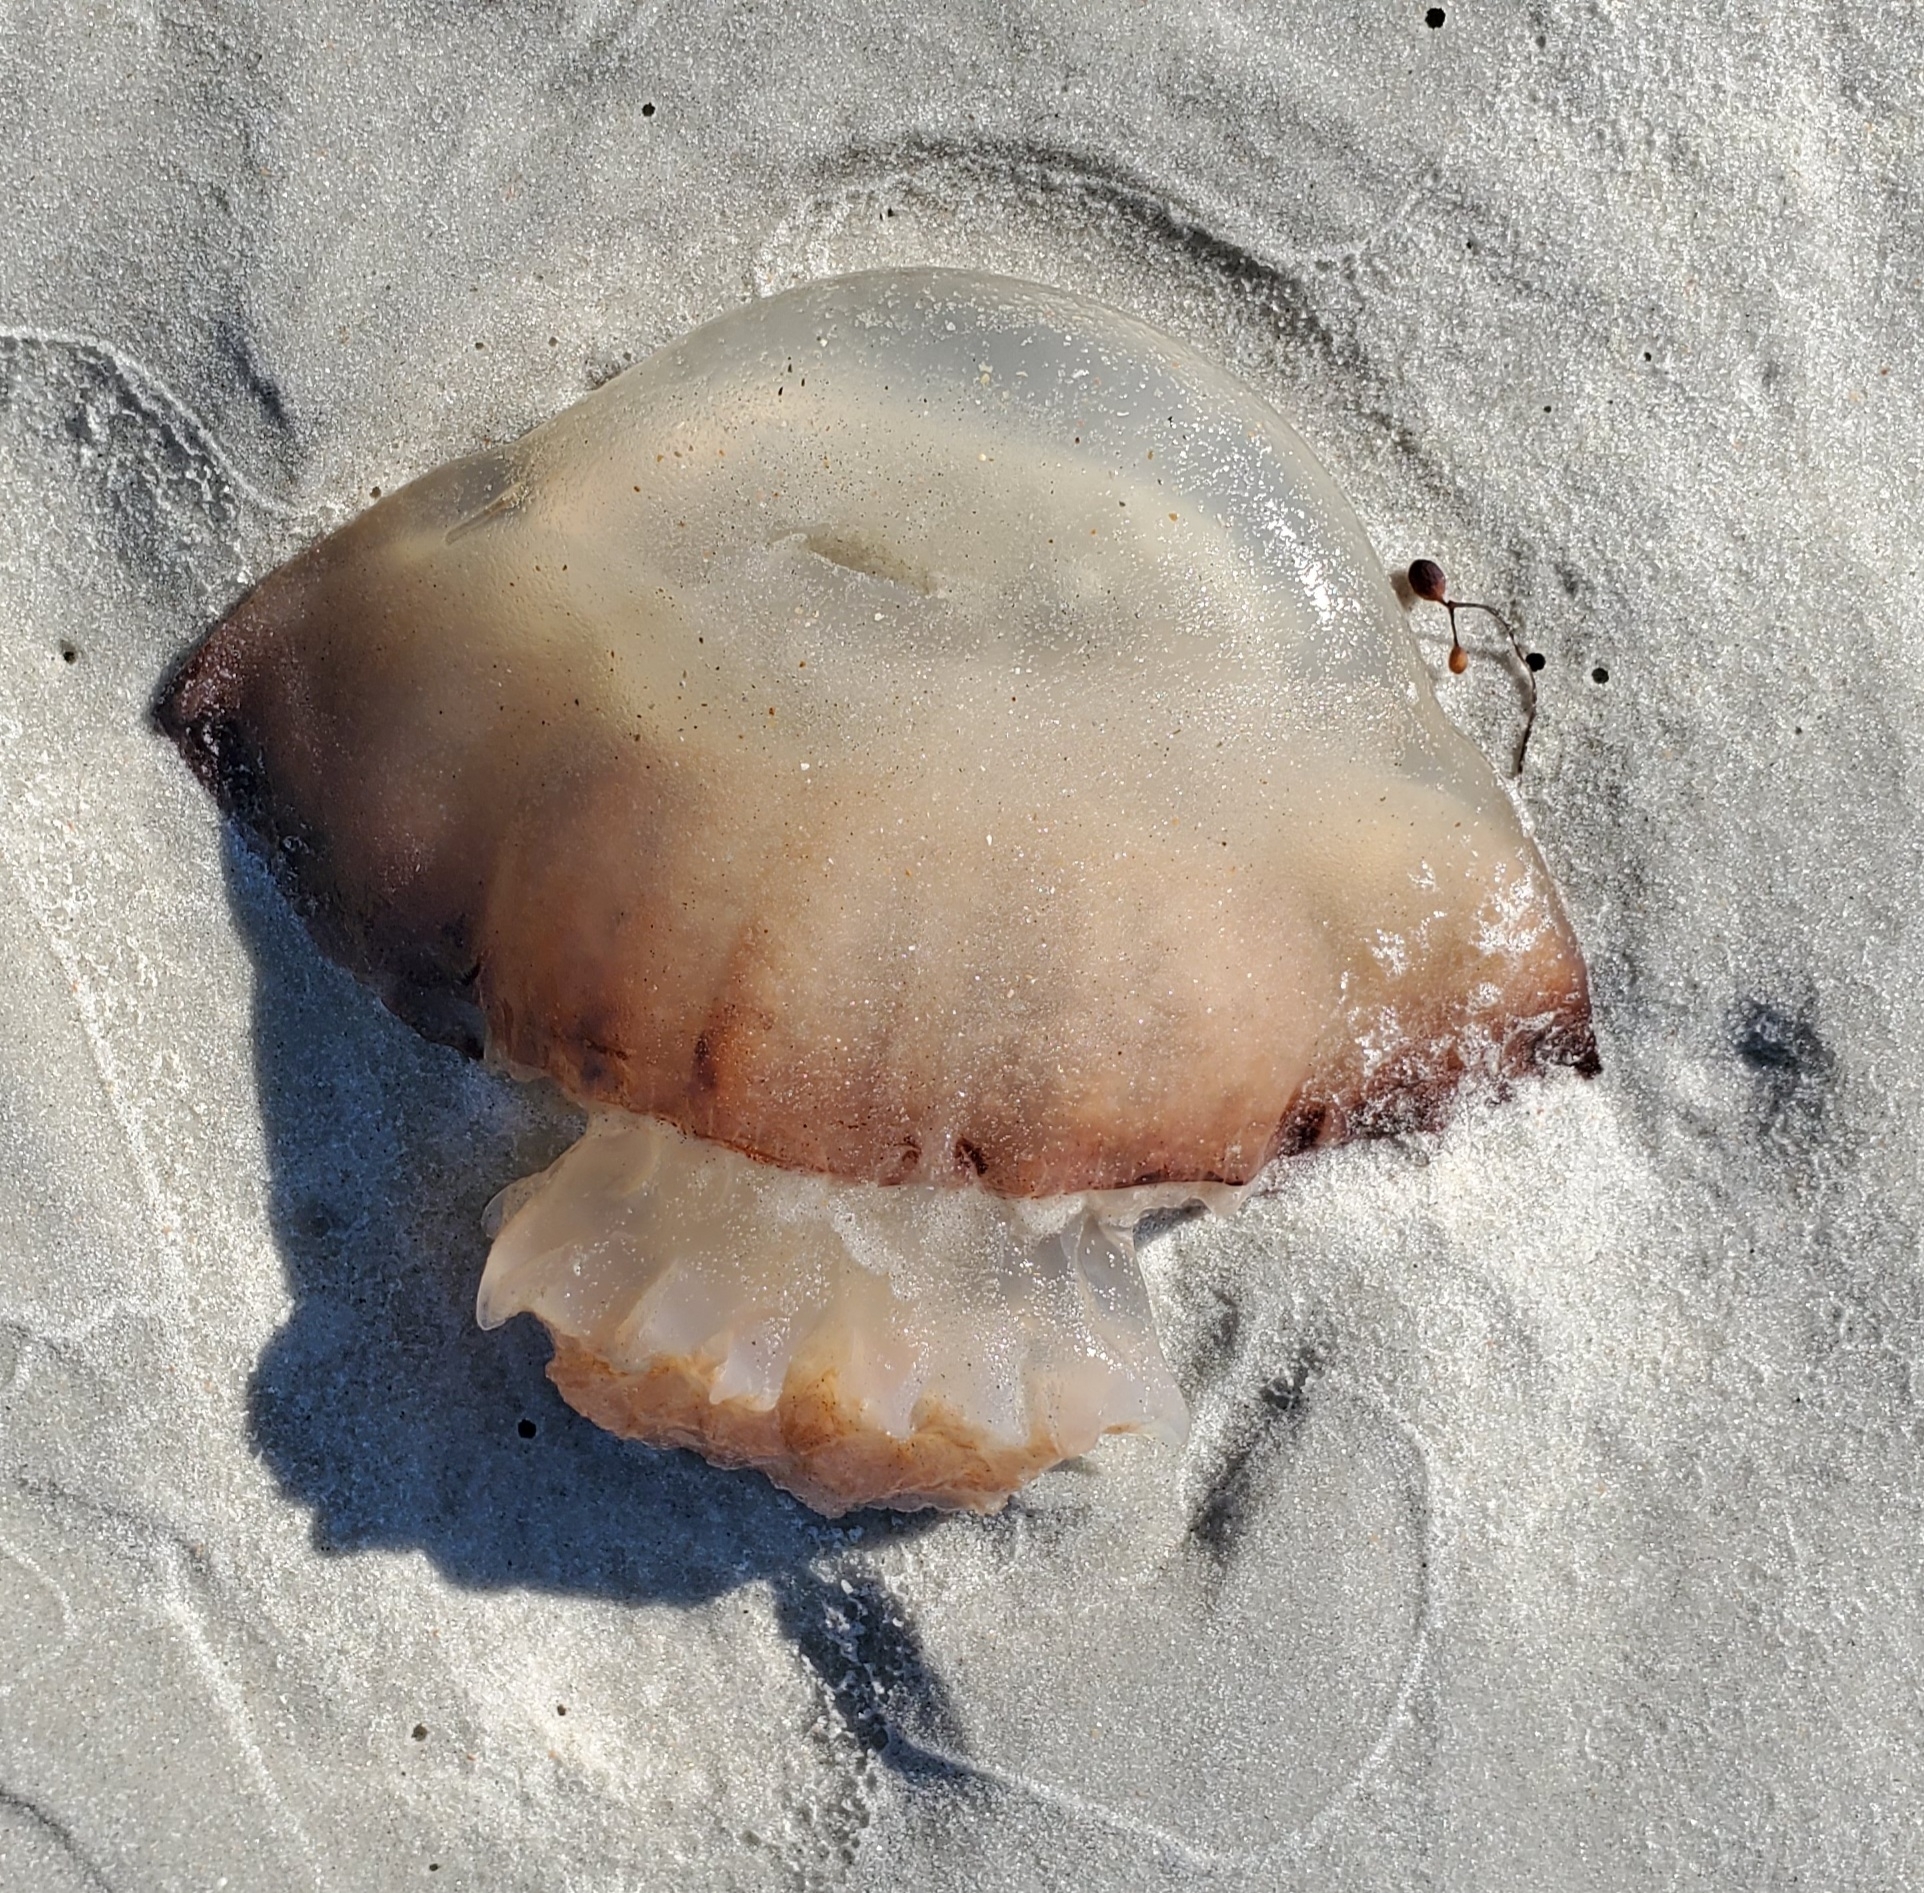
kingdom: Animalia
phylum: Cnidaria
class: Scyphozoa
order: Rhizostomeae
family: Stomolophidae
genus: Stomolophus
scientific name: Stomolophus meleagris
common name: Cabbagehead
